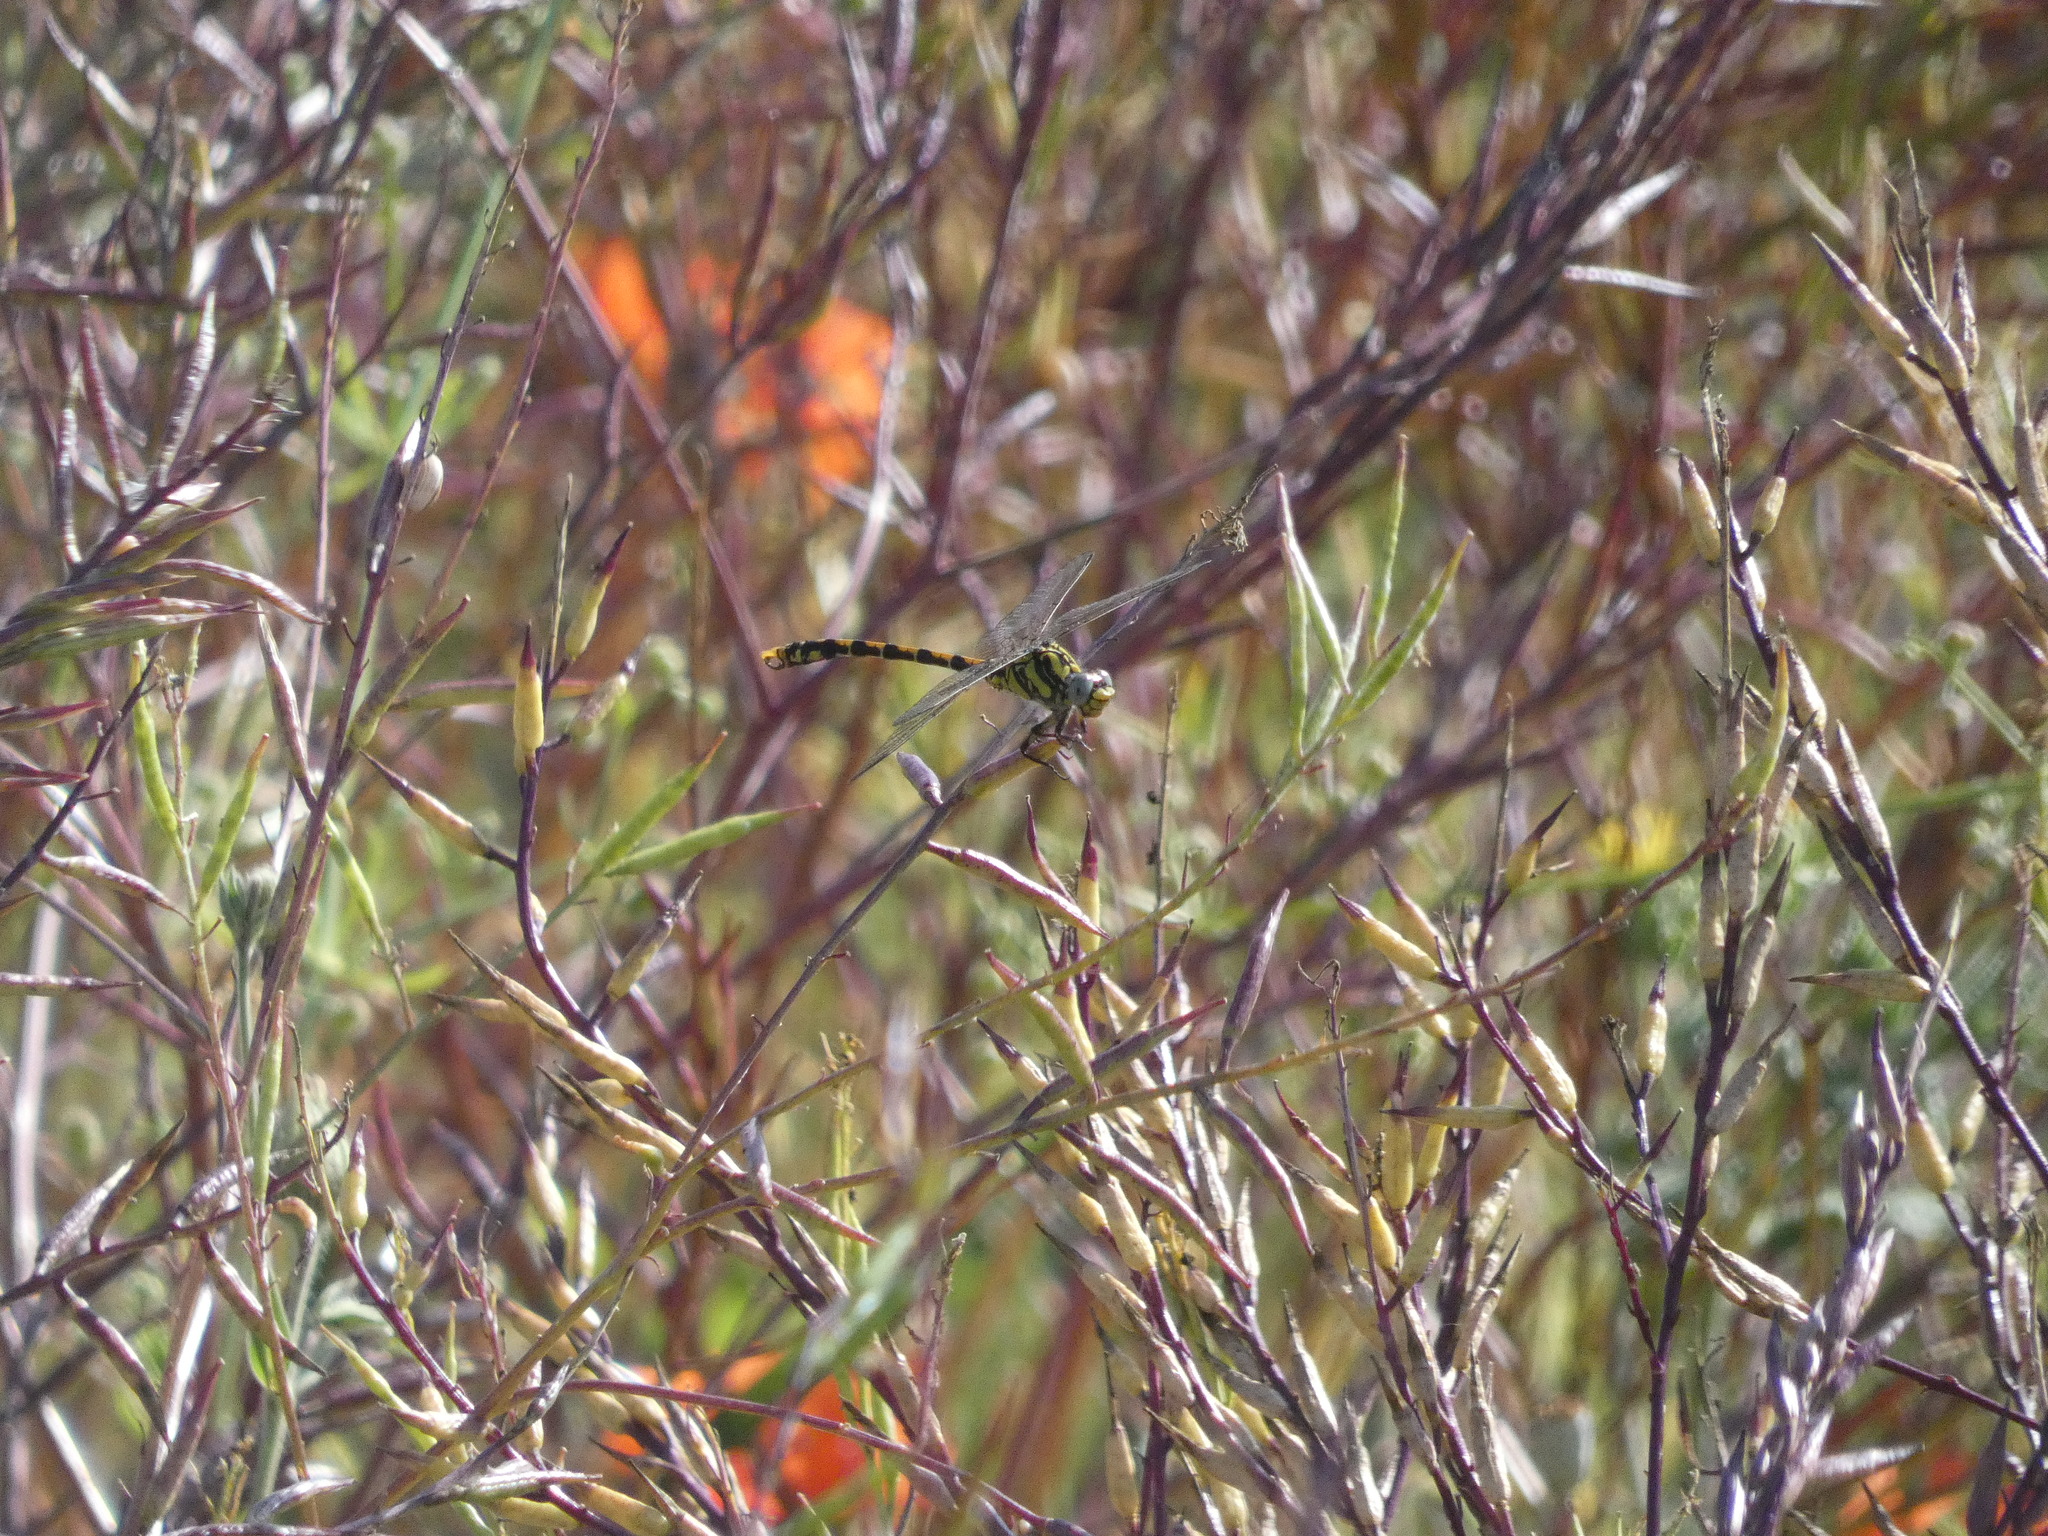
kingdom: Animalia
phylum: Arthropoda
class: Insecta
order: Odonata
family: Gomphidae
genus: Onychogomphus
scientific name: Onychogomphus uncatus
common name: Large pincertail
